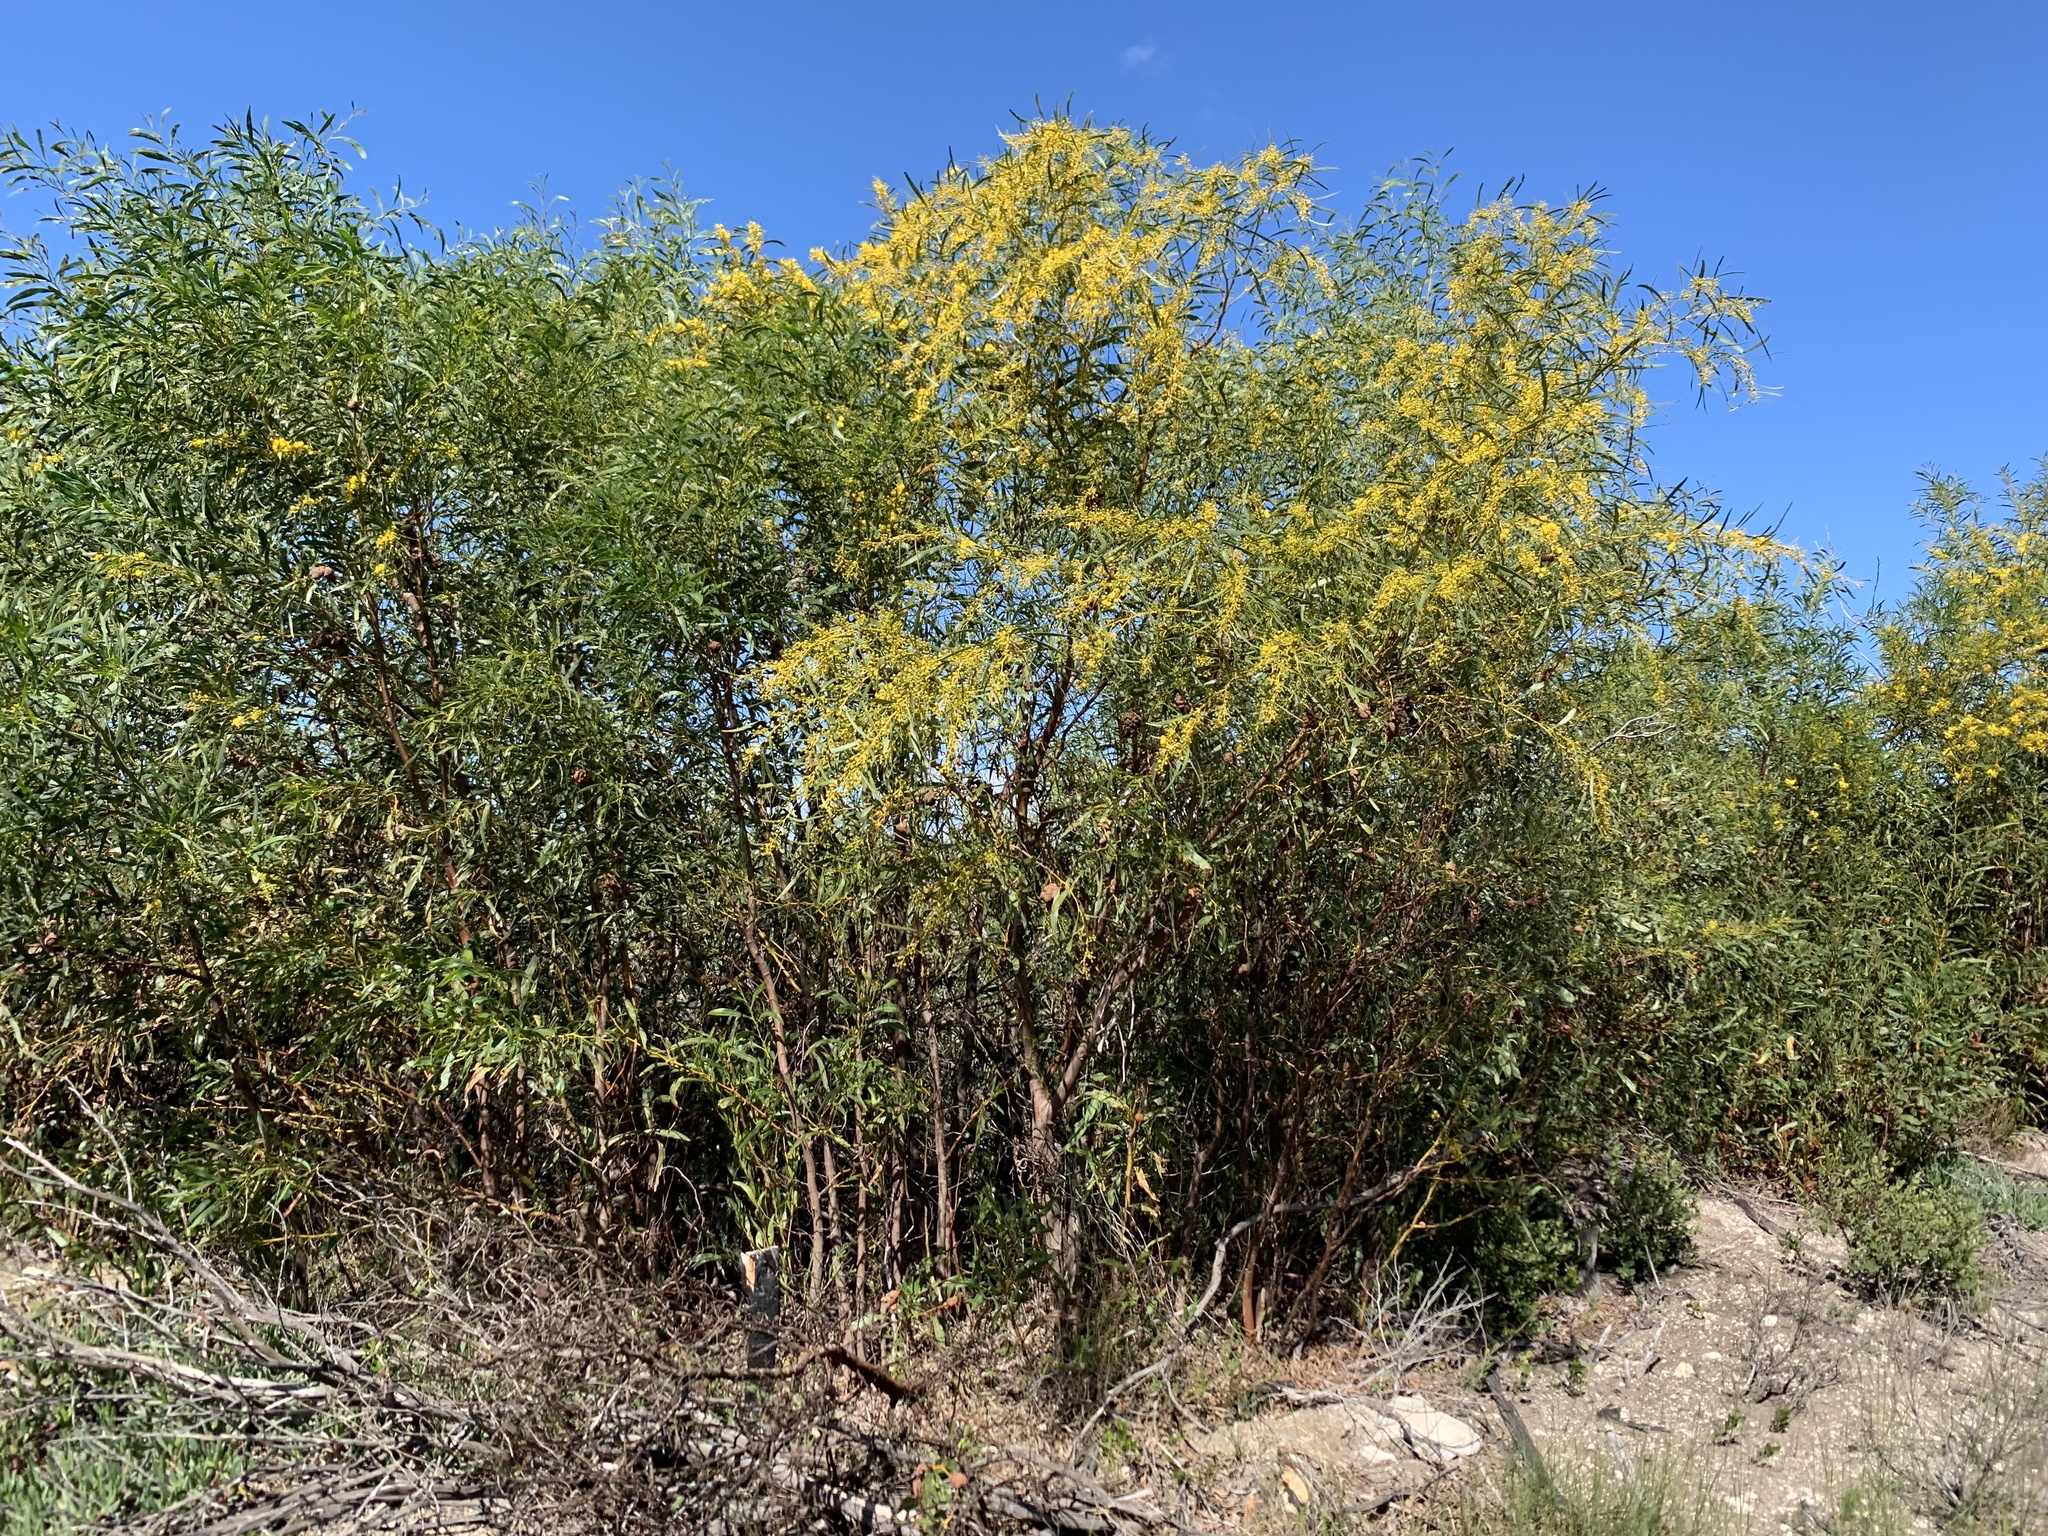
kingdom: Plantae
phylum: Tracheophyta
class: Magnoliopsida
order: Fabales
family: Fabaceae
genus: Acacia
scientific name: Acacia saligna
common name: Orange wattle
